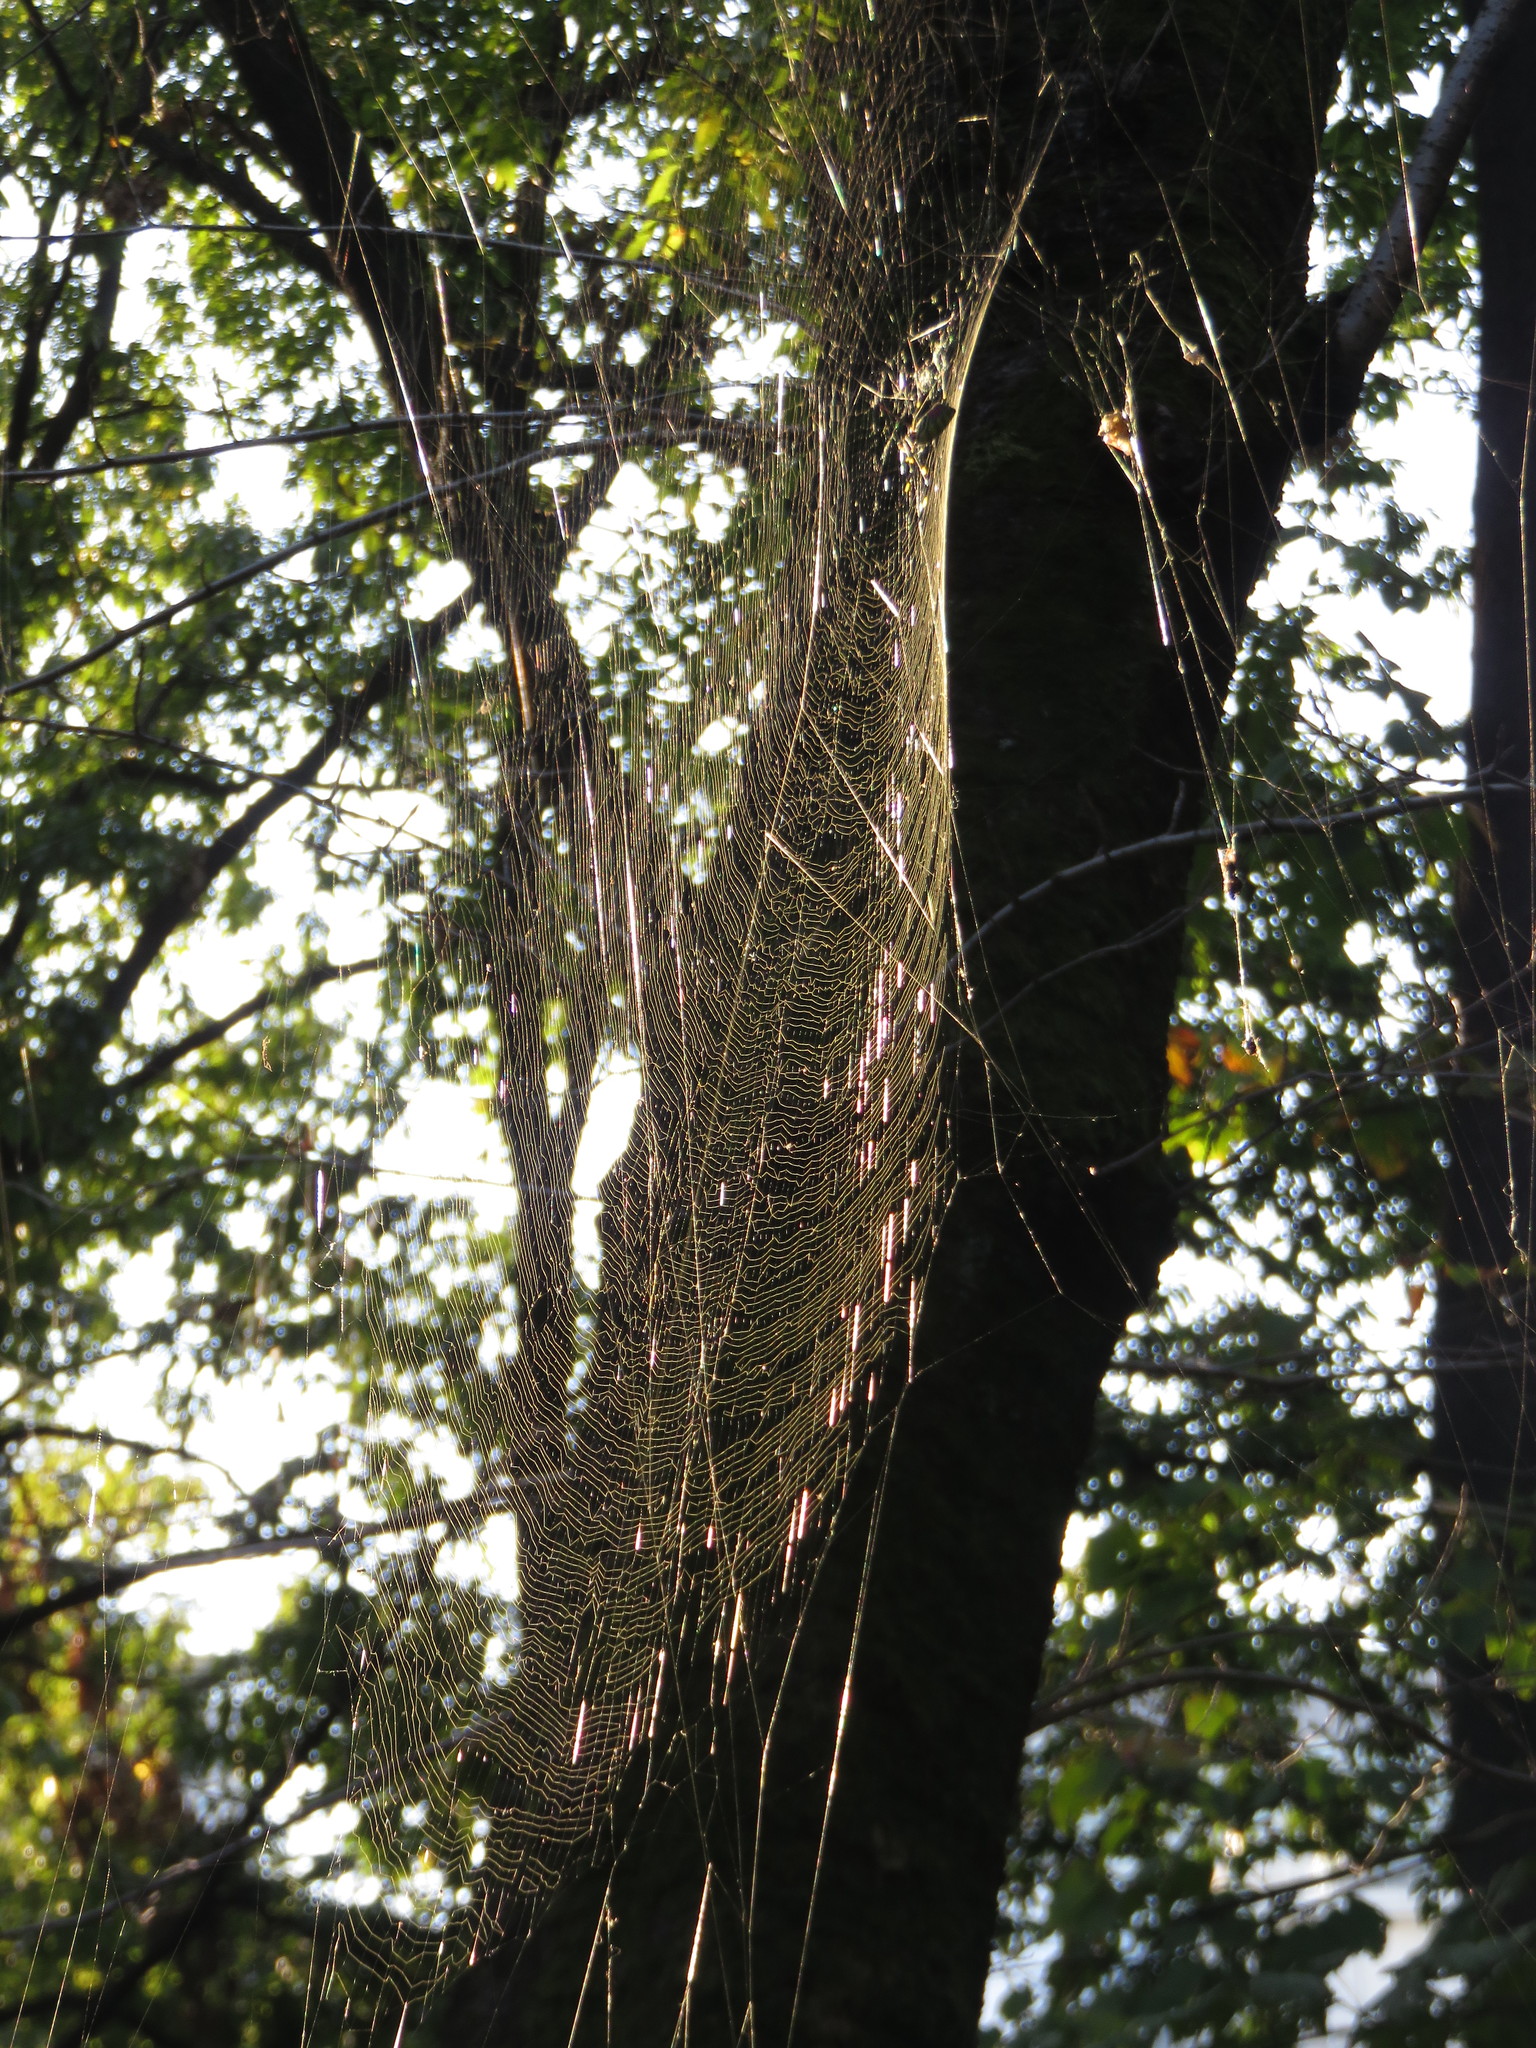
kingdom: Animalia
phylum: Arthropoda
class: Arachnida
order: Araneae
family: Araneidae
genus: Trichonephila
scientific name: Trichonephila clavata
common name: Jorō spider
